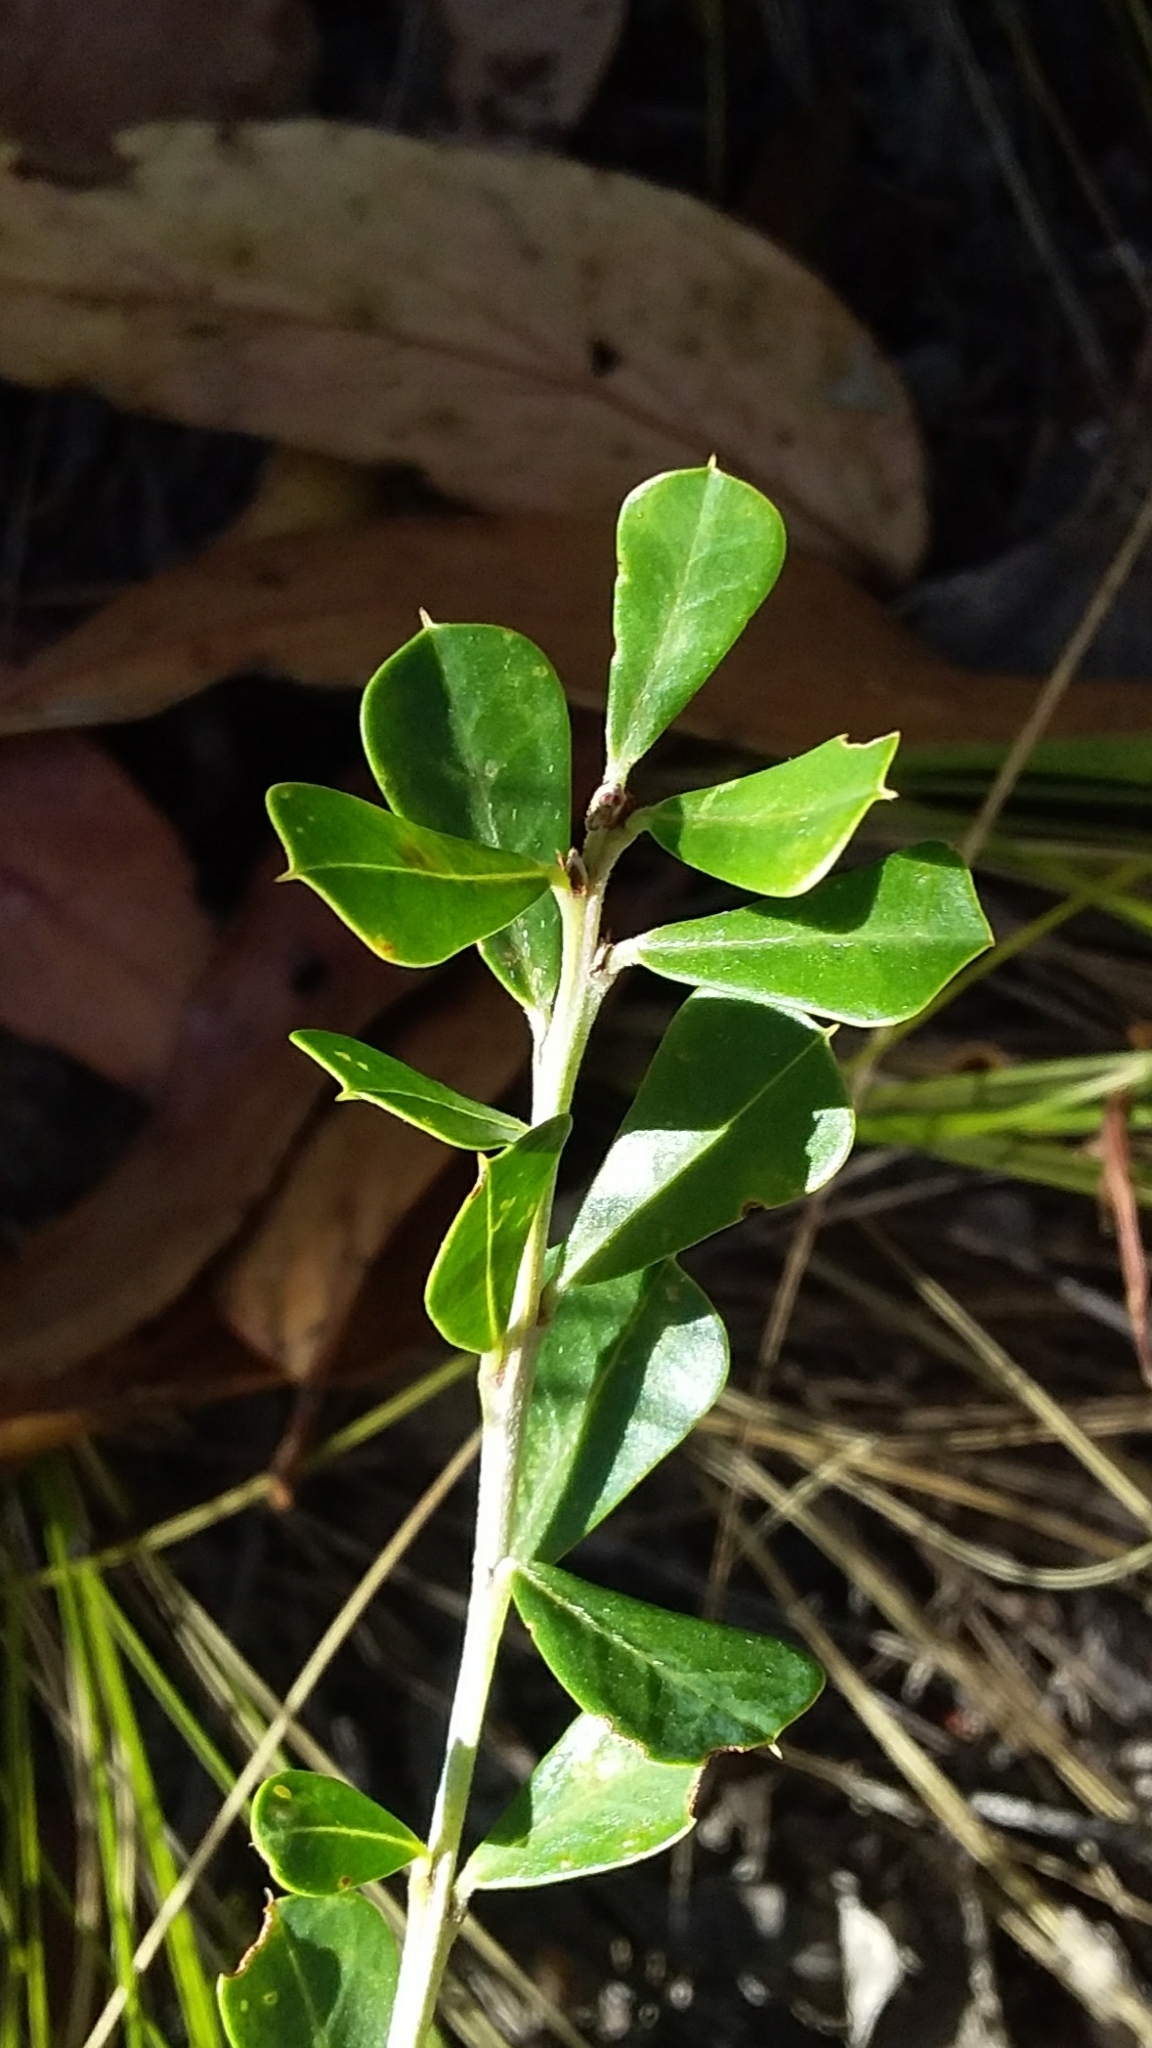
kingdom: Plantae
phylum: Tracheophyta
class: Magnoliopsida
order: Fabales
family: Fabaceae
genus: Pultenaea
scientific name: Pultenaea daphnoides
